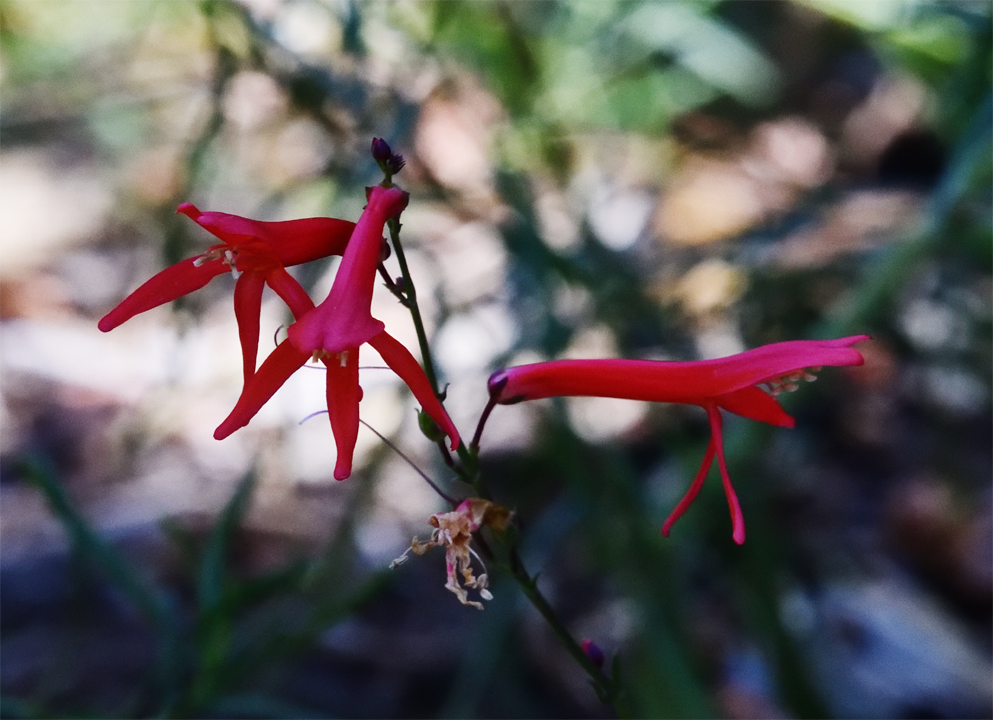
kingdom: Plantae
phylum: Tracheophyta
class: Magnoliopsida
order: Lamiales
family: Plantaginaceae
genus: Penstemon
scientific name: Penstemon labrosus
